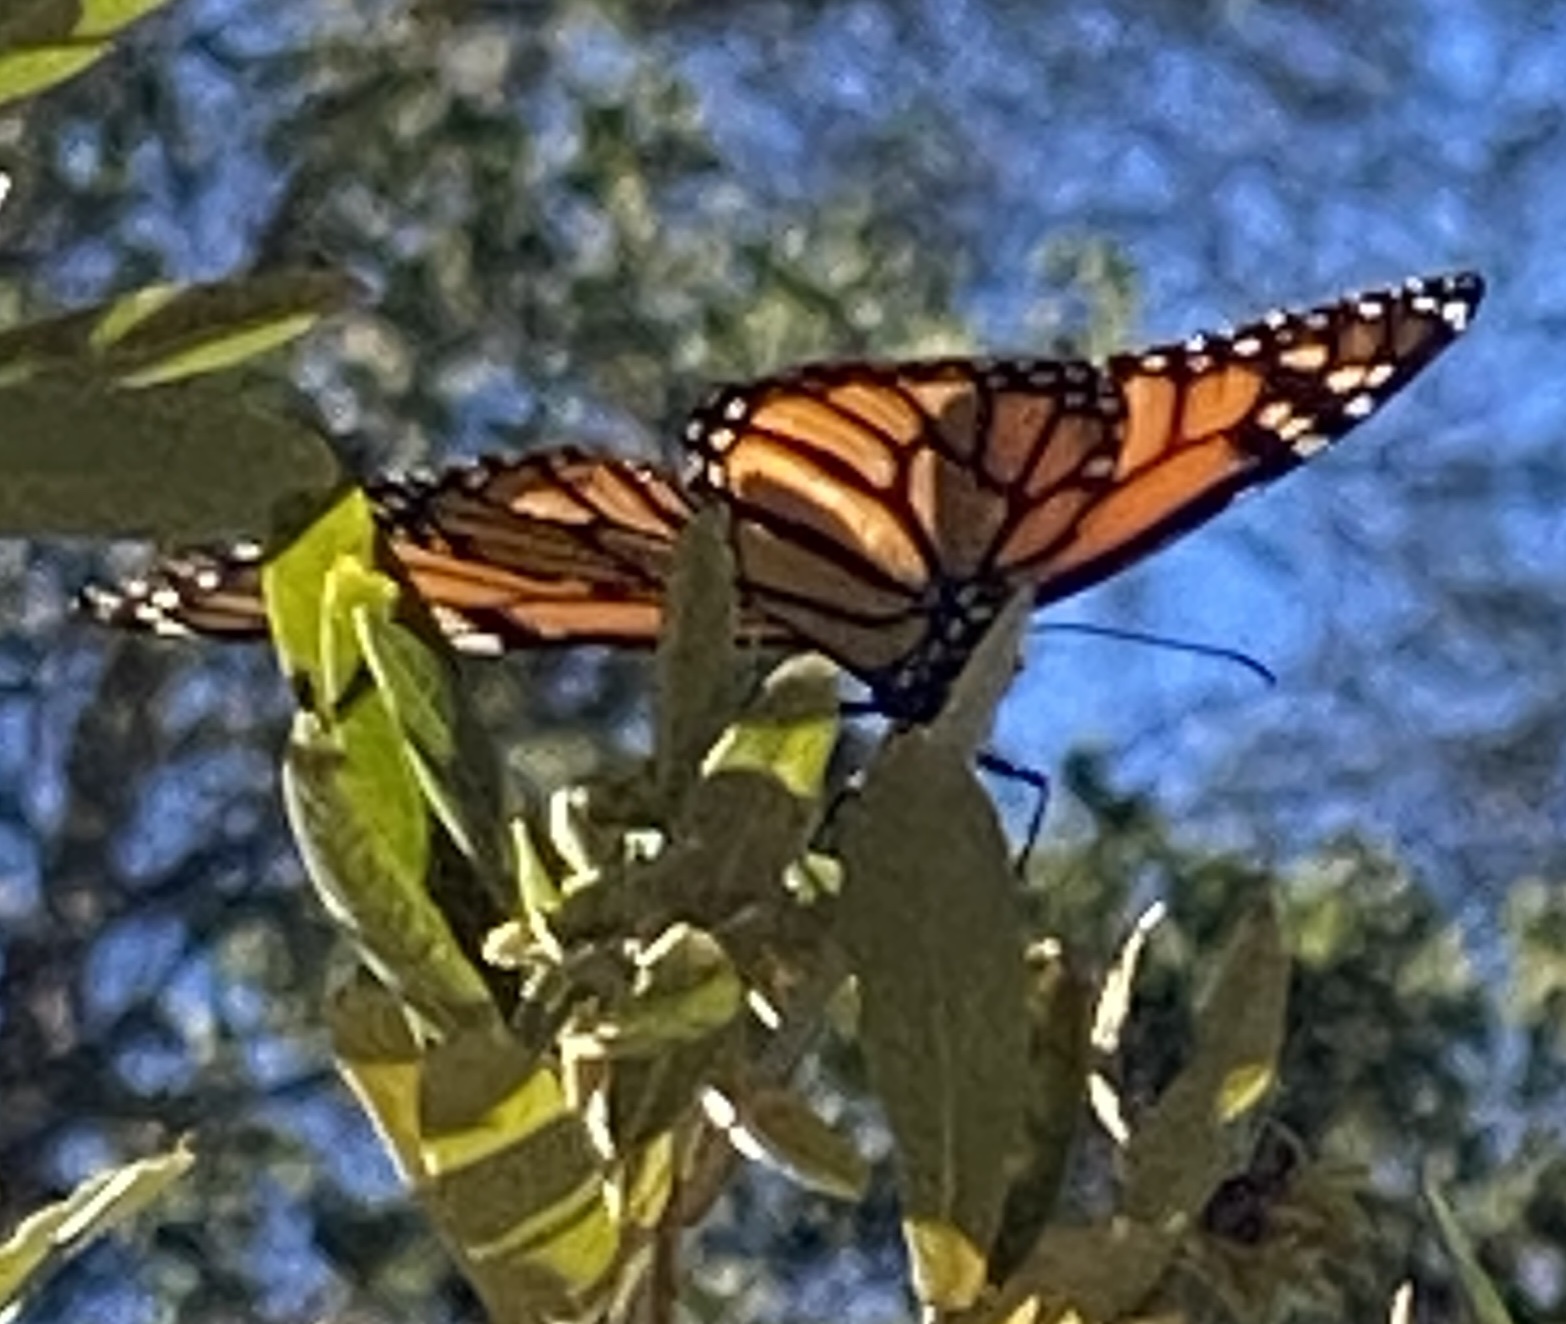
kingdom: Animalia
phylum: Arthropoda
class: Insecta
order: Lepidoptera
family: Nymphalidae
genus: Danaus
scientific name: Danaus plexippus
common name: Monarch
